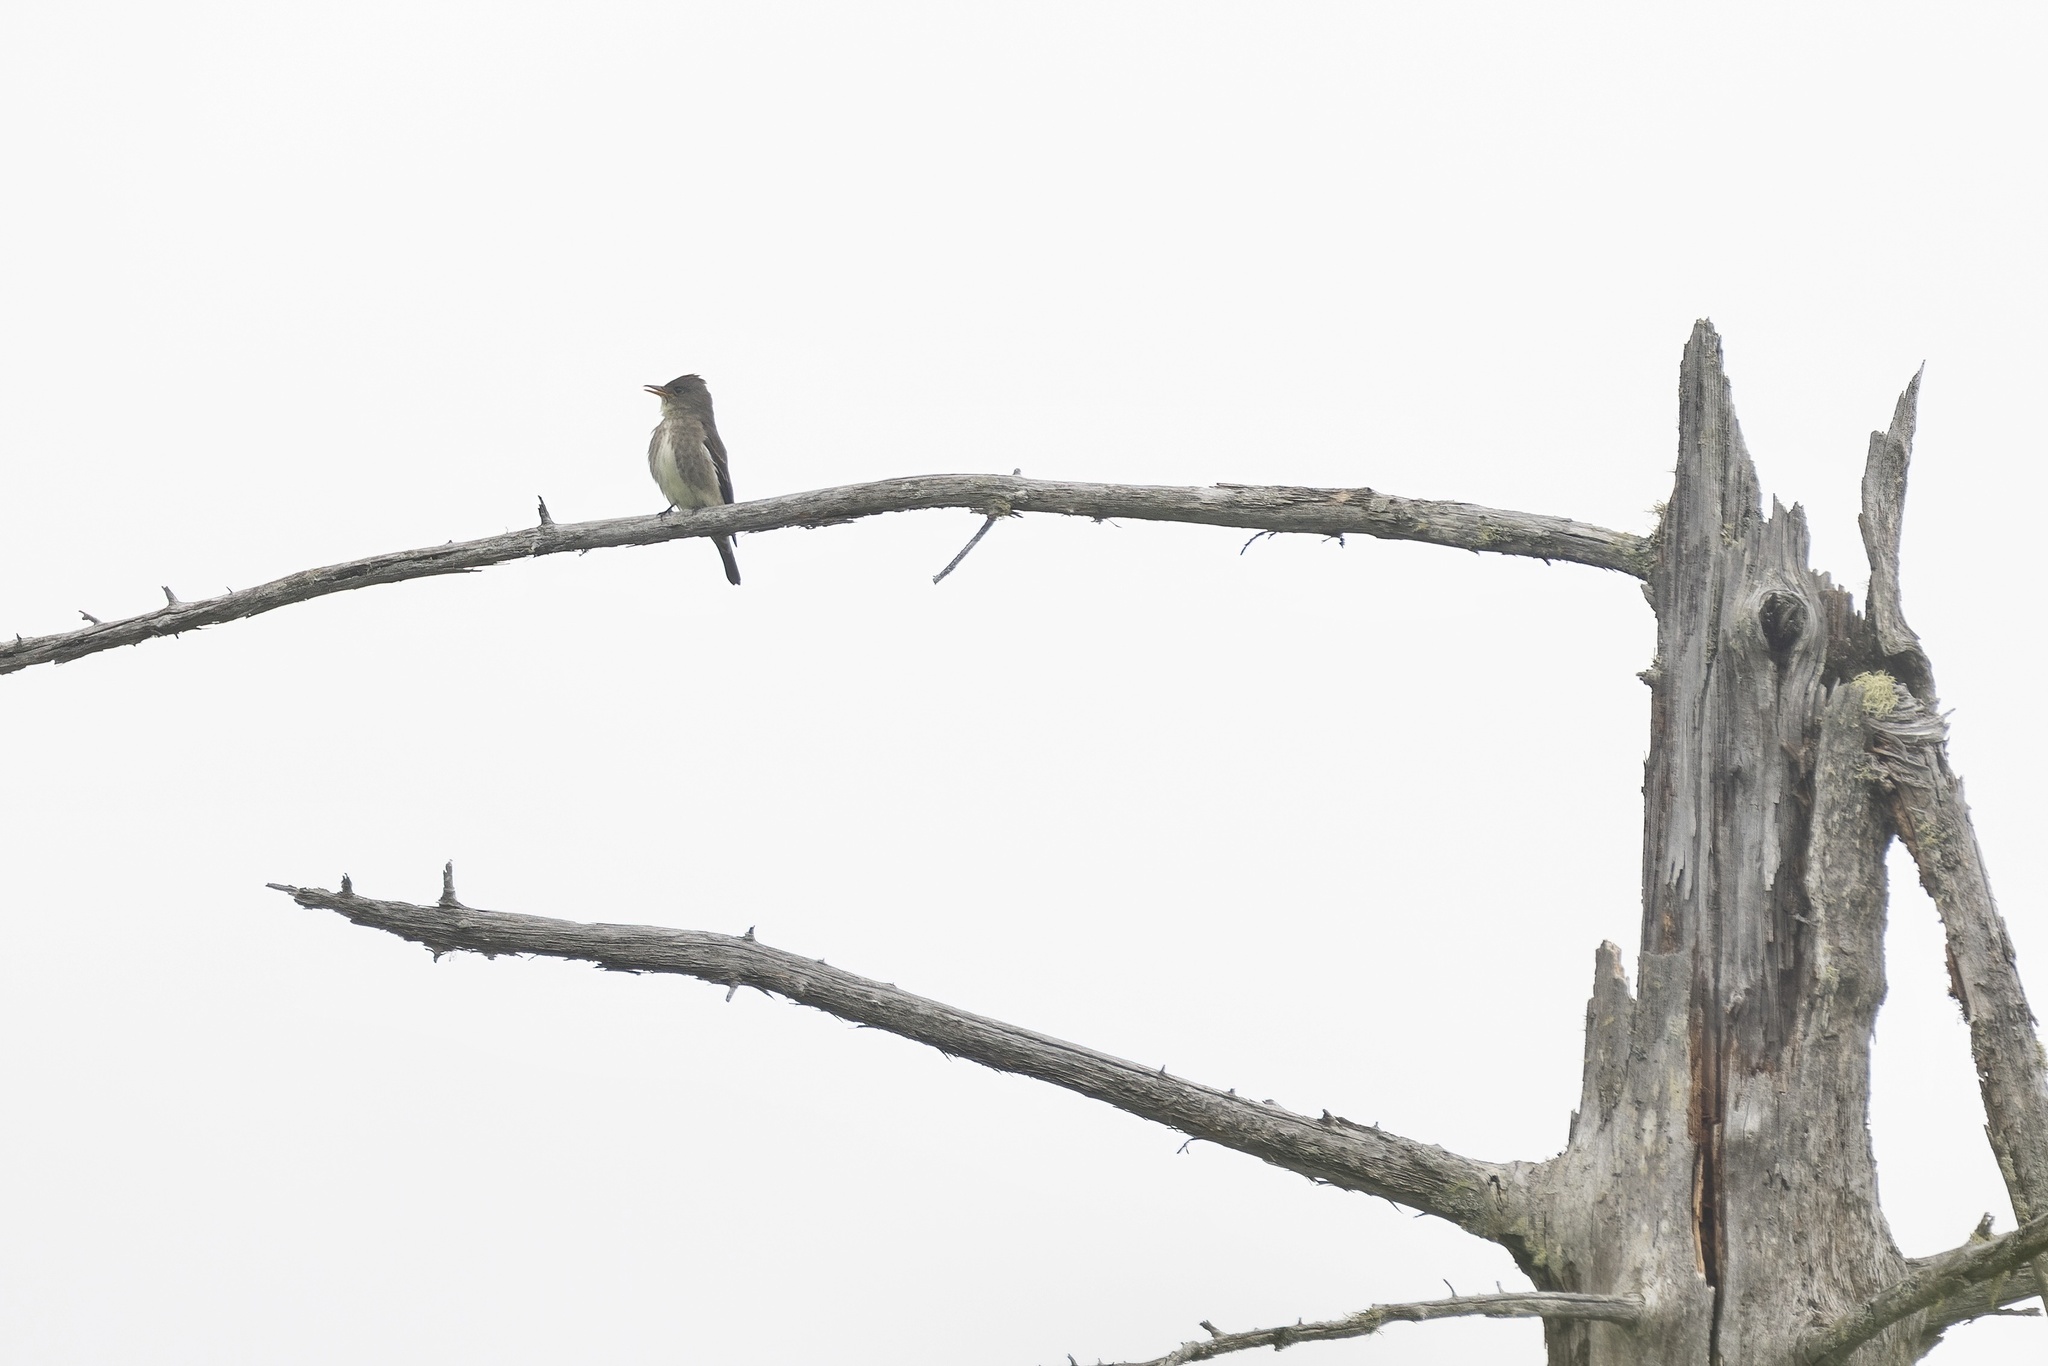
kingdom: Animalia
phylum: Chordata
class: Aves
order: Passeriformes
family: Tyrannidae
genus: Contopus
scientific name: Contopus cooperi
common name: Olive-sided flycatcher
